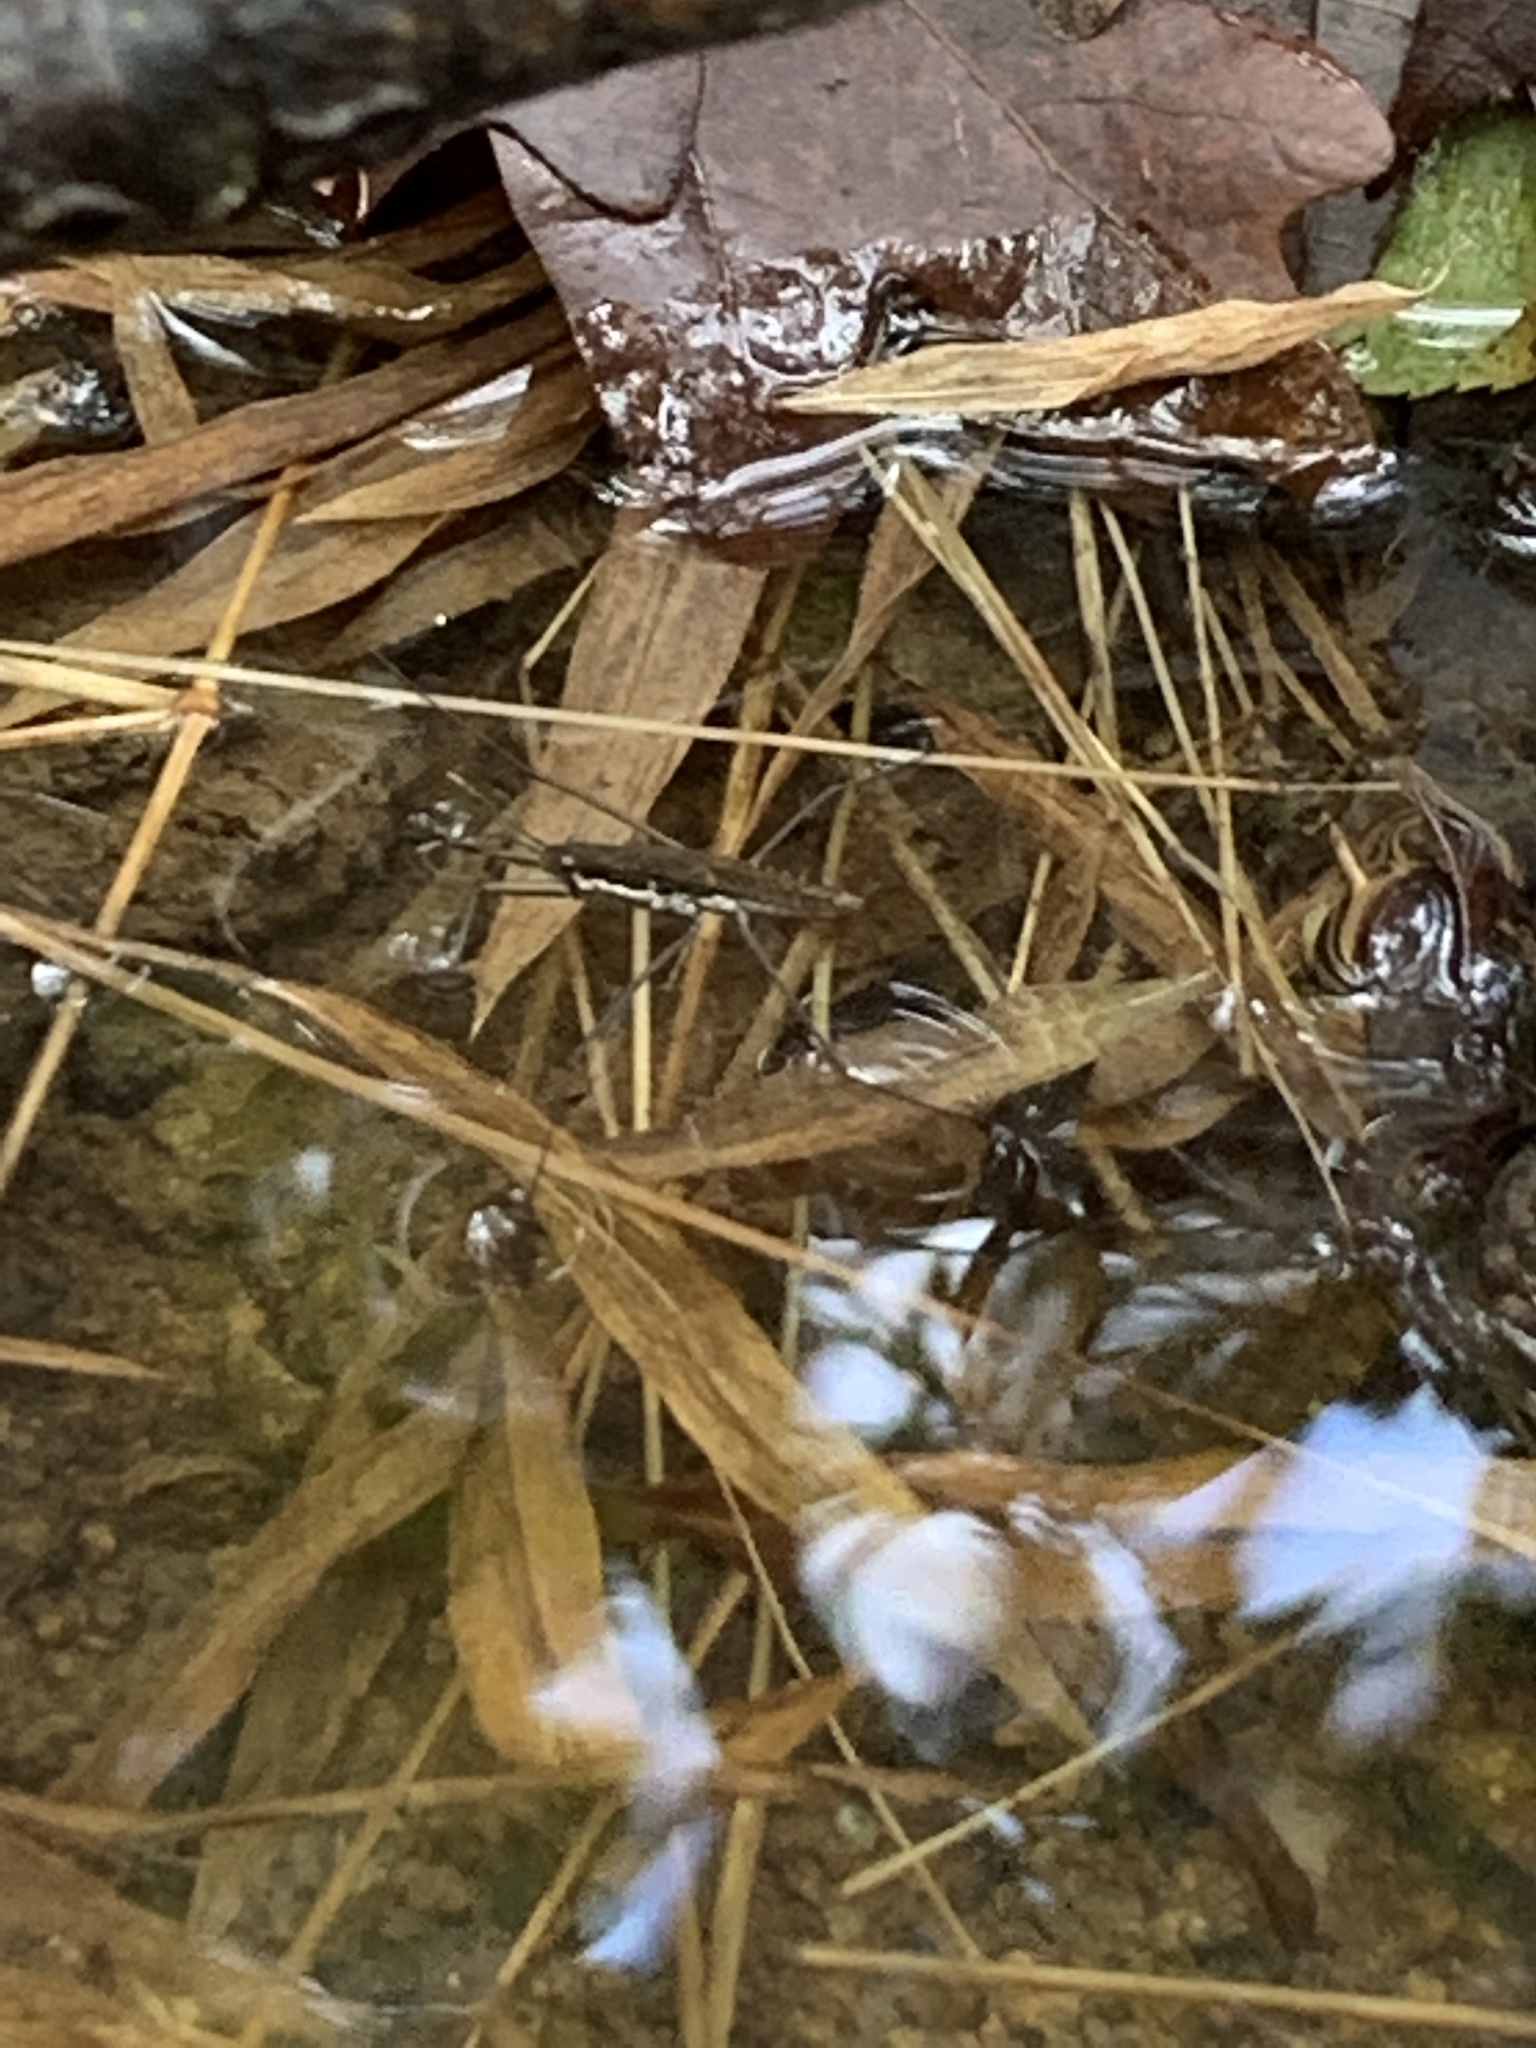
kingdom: Animalia
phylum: Arthropoda
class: Insecta
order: Hemiptera
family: Gerridae
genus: Aquarius
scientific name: Aquarius
